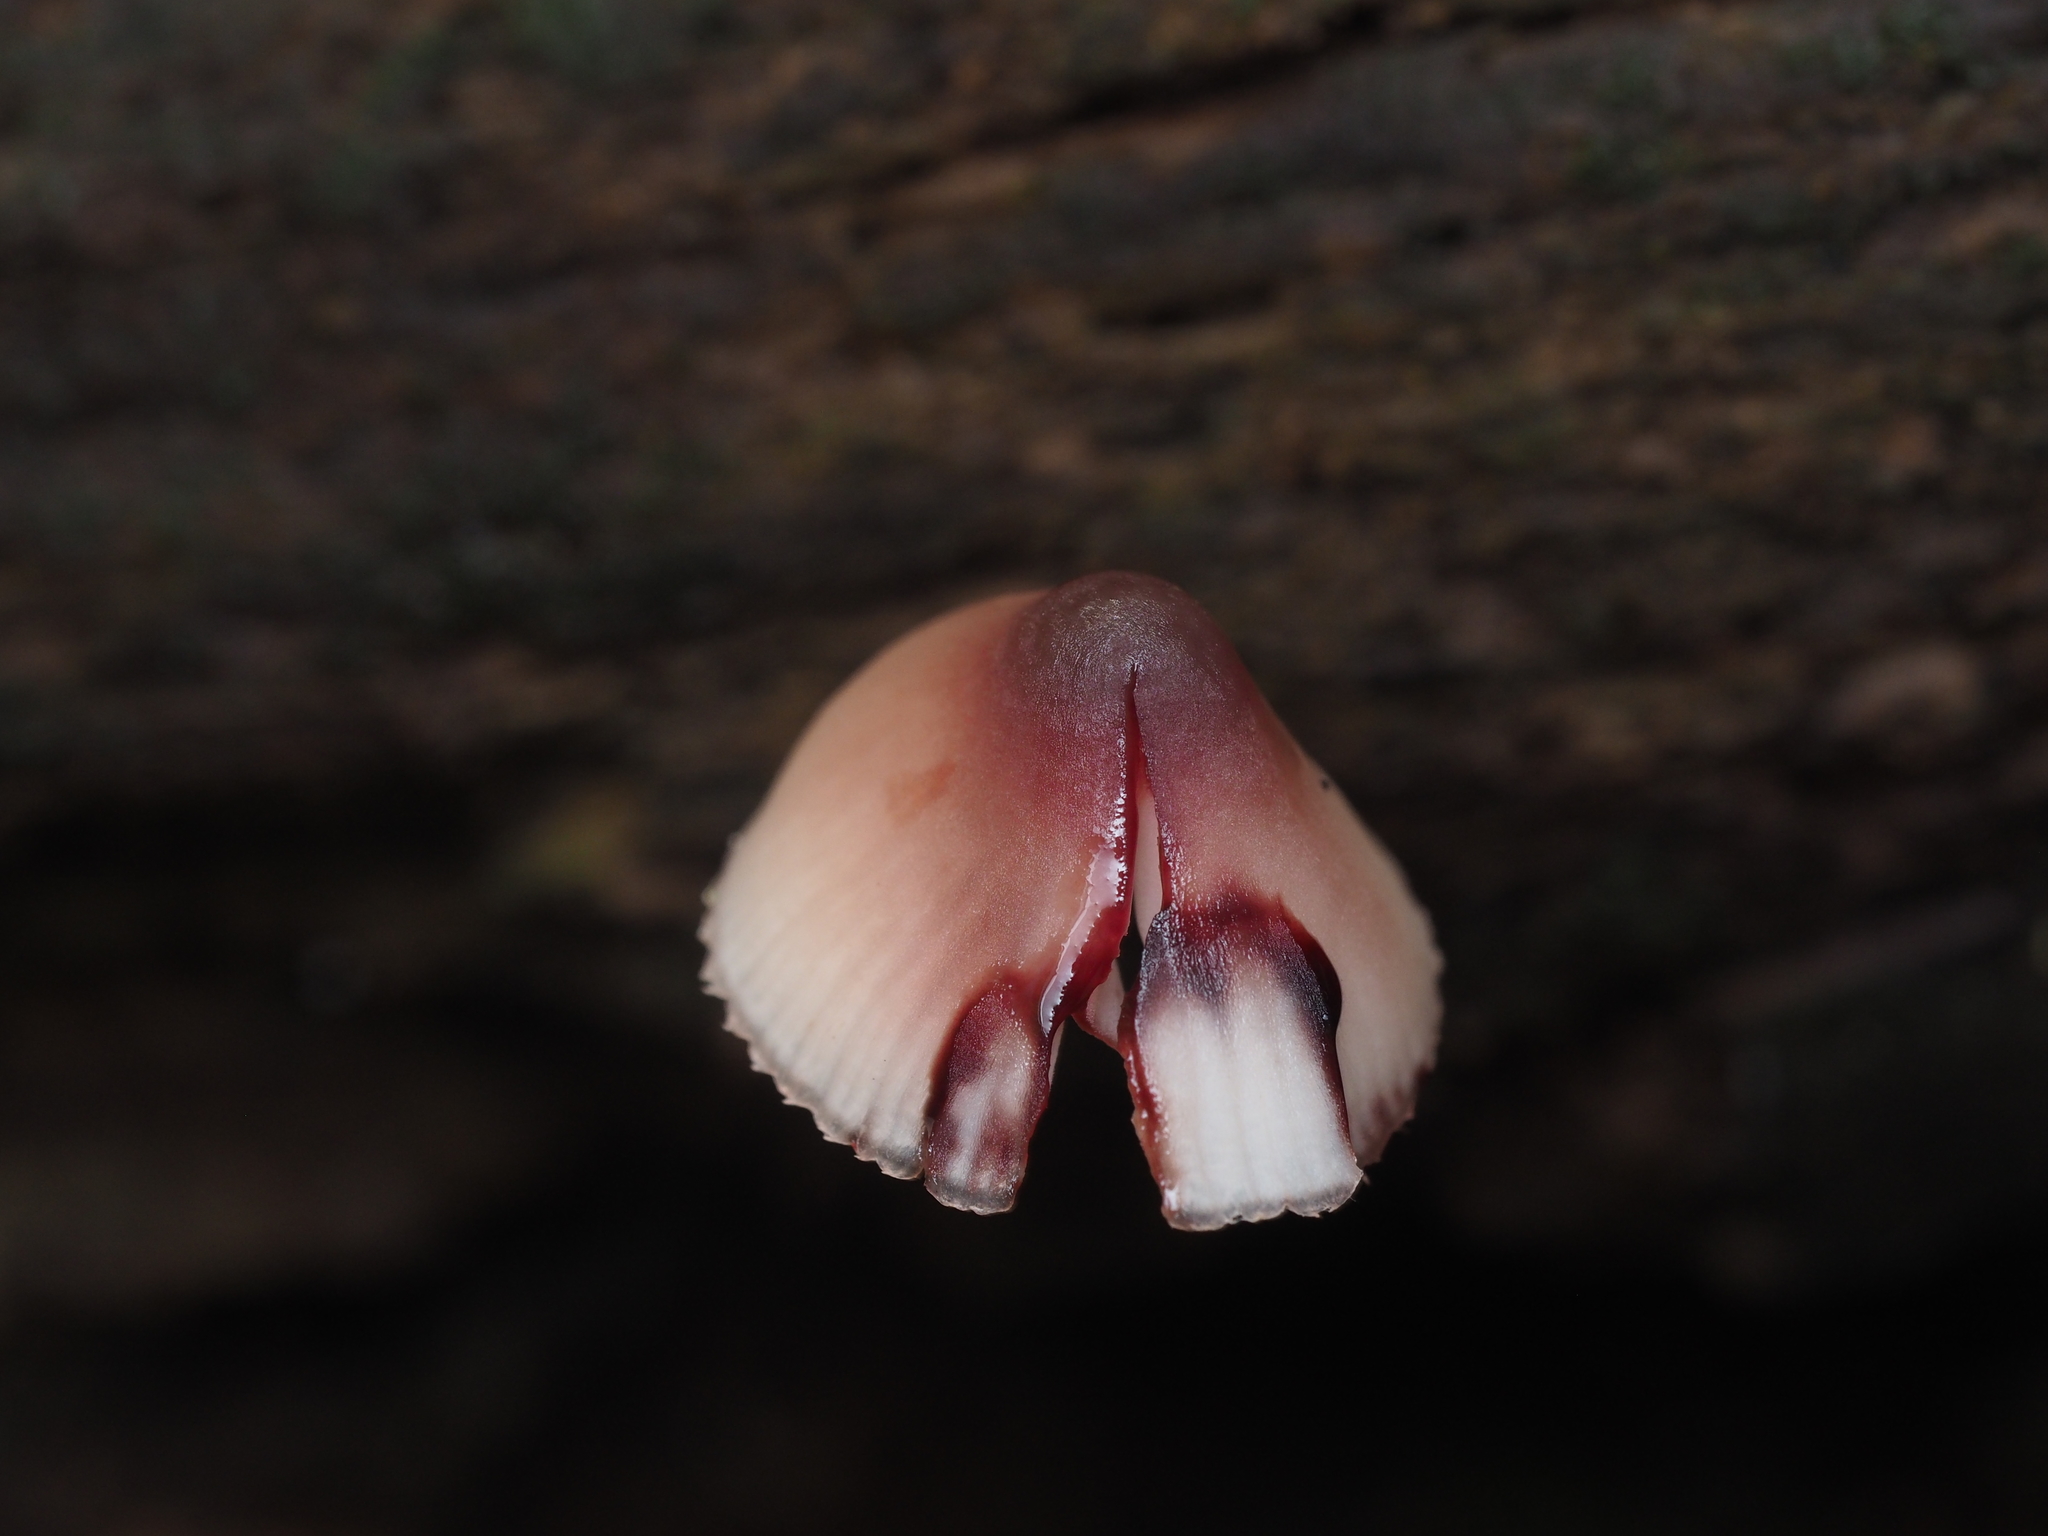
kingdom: Fungi
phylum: Basidiomycota
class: Agaricomycetes
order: Agaricales
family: Mycenaceae
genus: Mycena
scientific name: Mycena haematopus
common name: Burgundydrop bonnet
